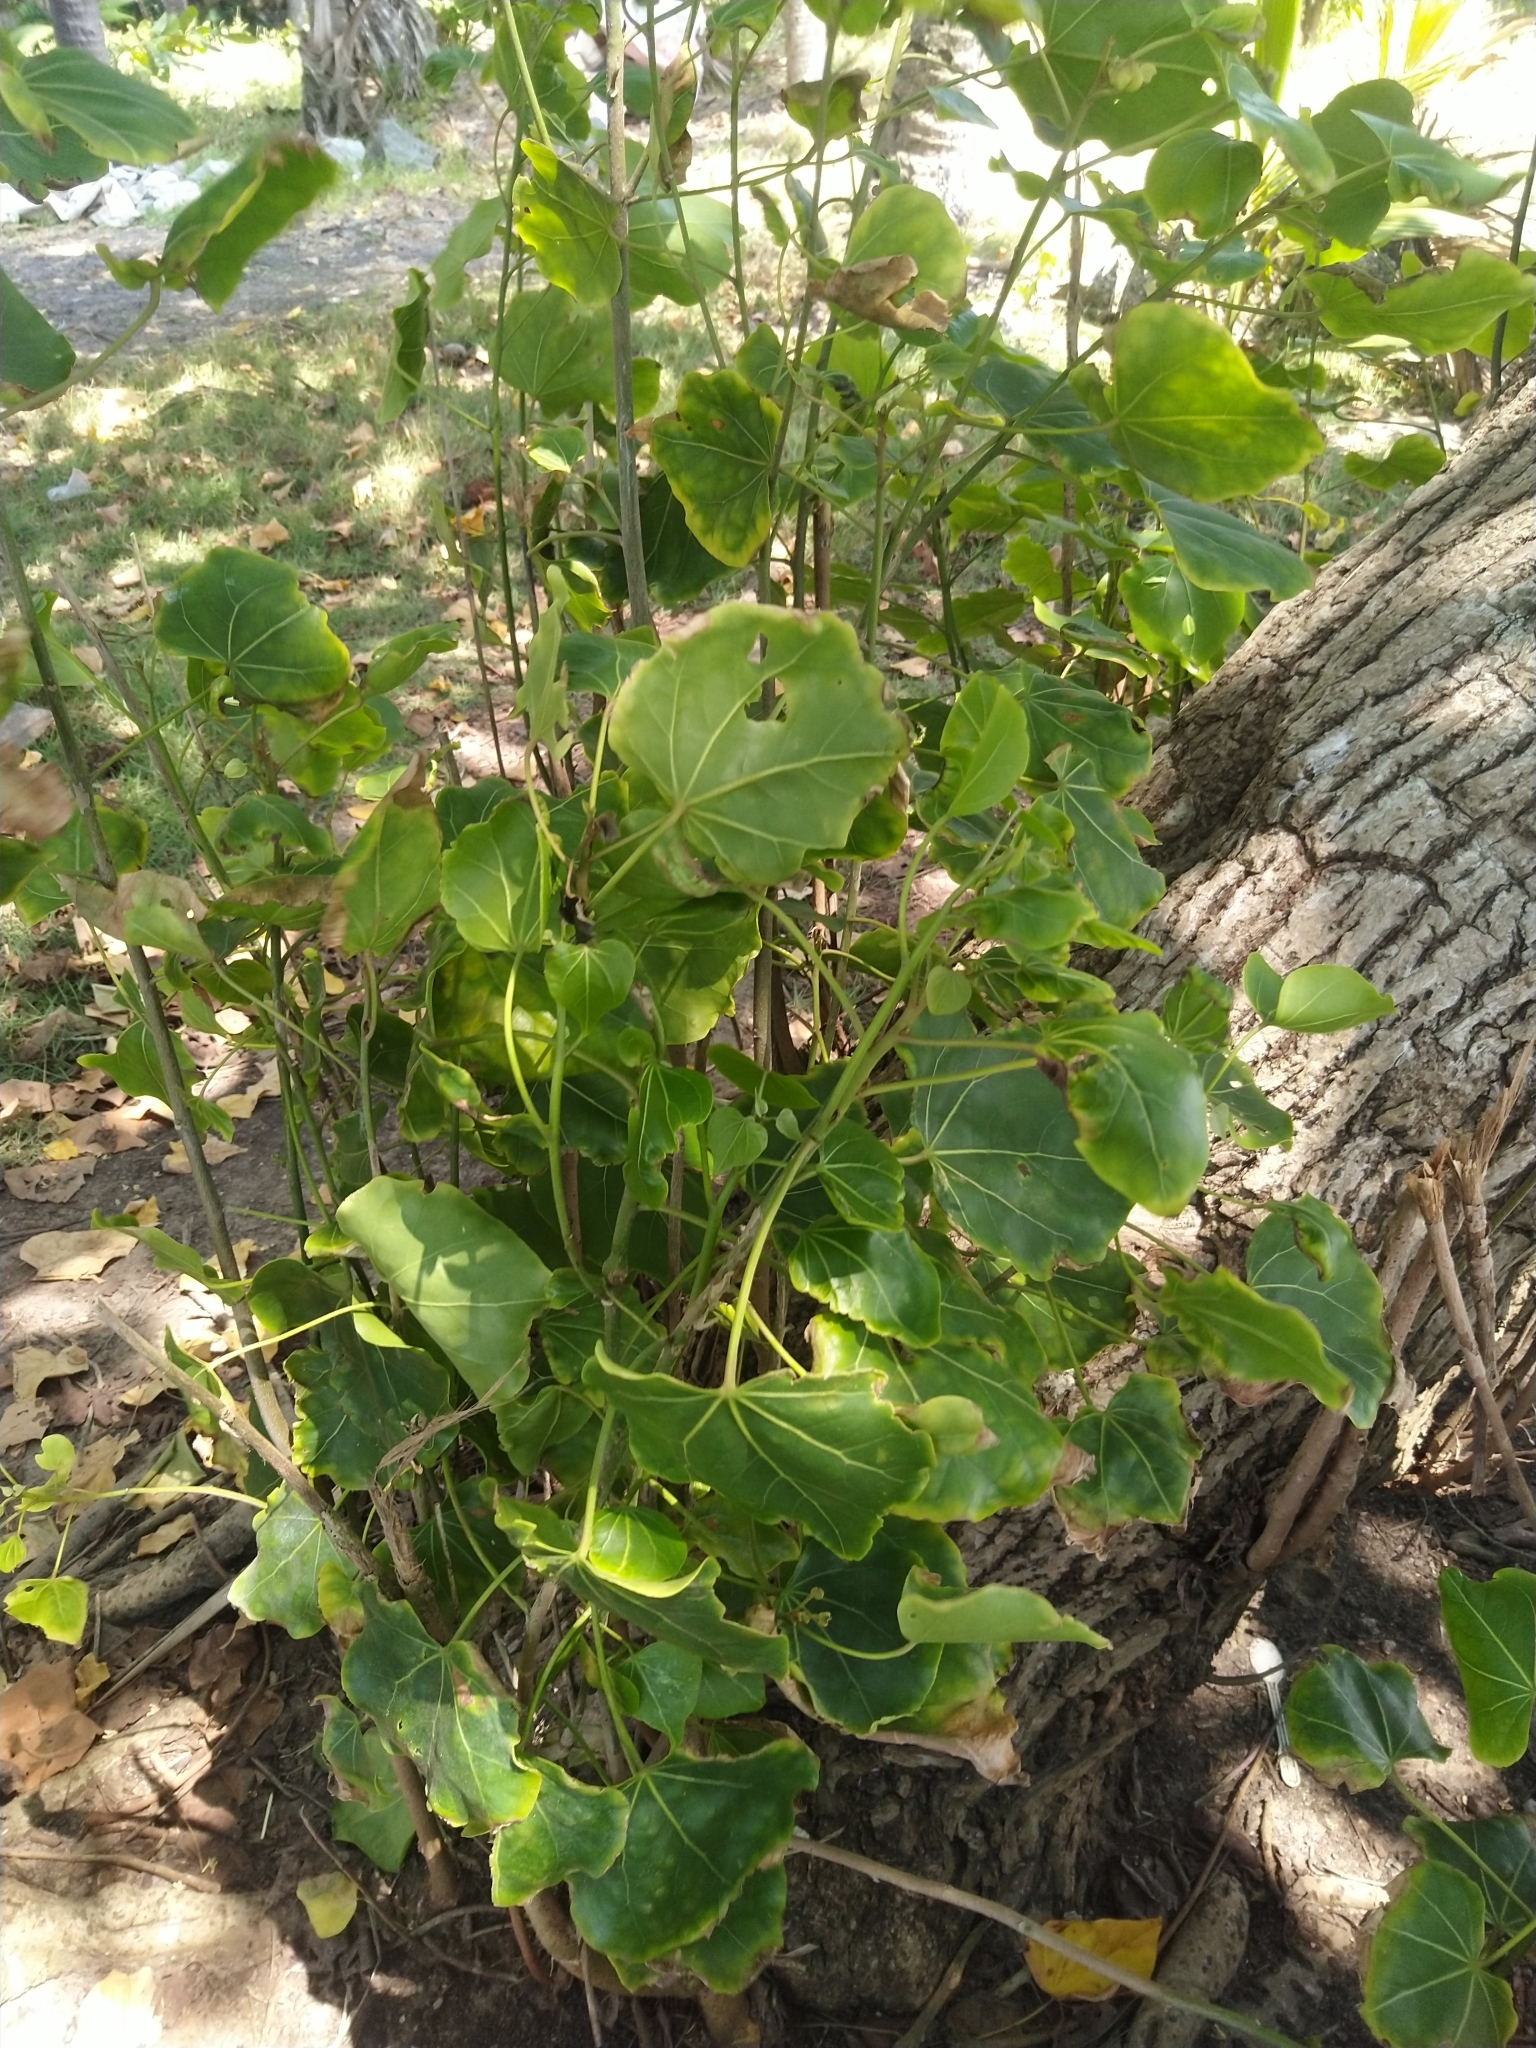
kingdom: Plantae
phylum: Tracheophyta
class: Magnoliopsida
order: Malvales
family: Malvaceae
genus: Thespesia
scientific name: Thespesia populnea
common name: Seaside mahoe
